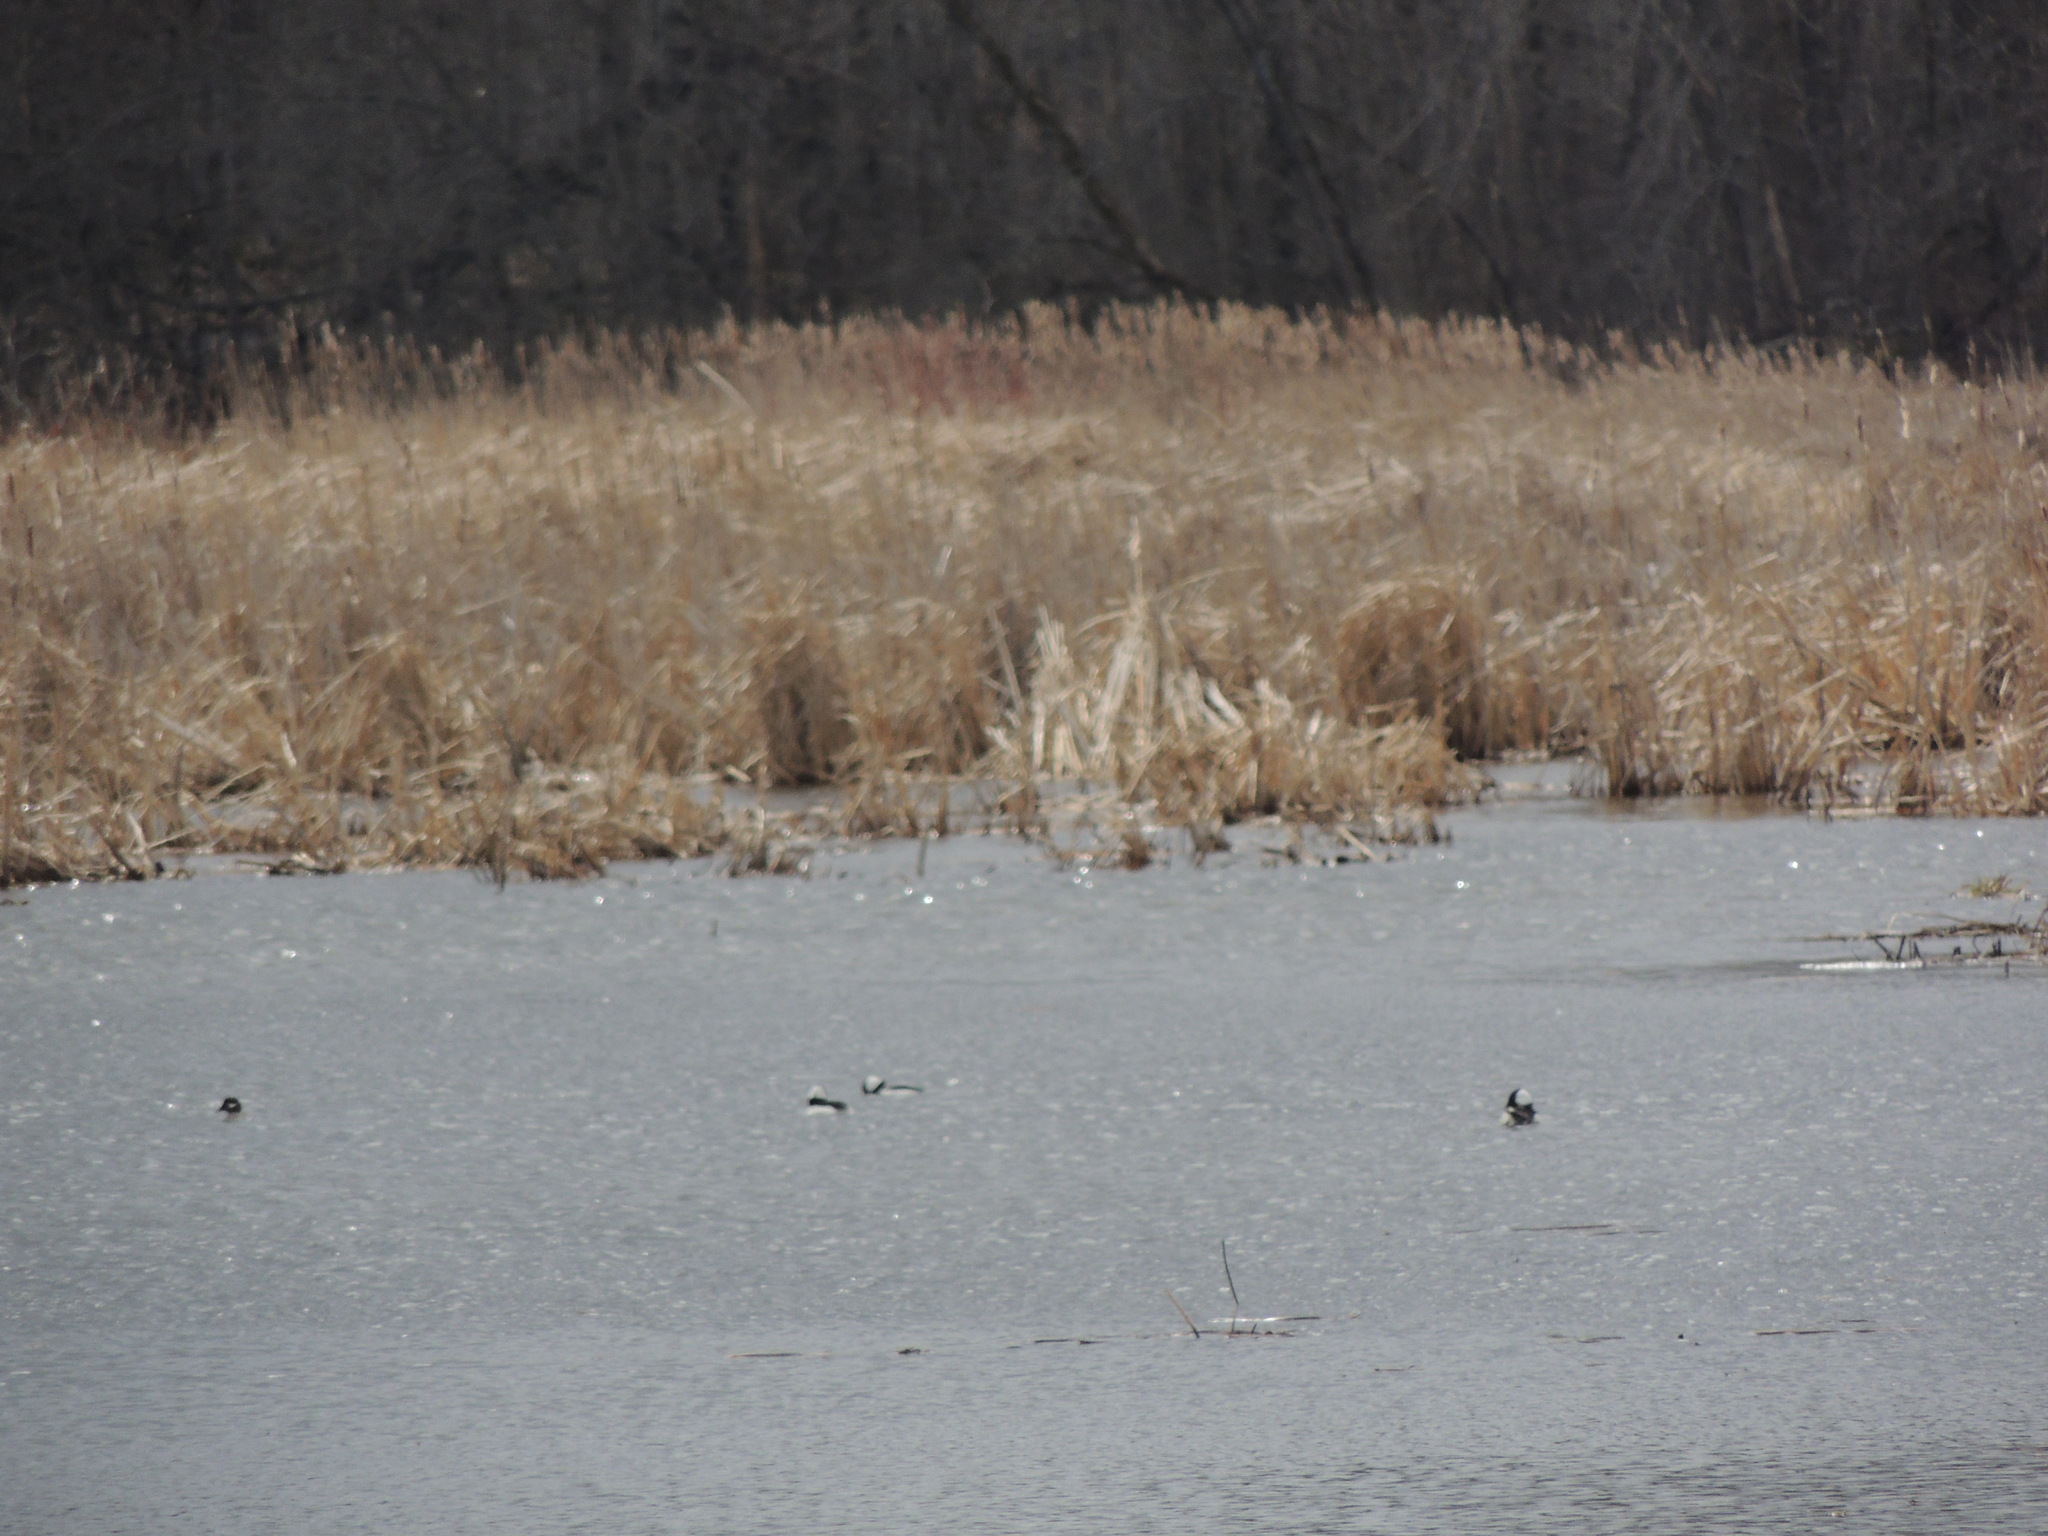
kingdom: Animalia
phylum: Chordata
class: Aves
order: Anseriformes
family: Anatidae
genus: Bucephala
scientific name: Bucephala albeola
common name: Bufflehead
